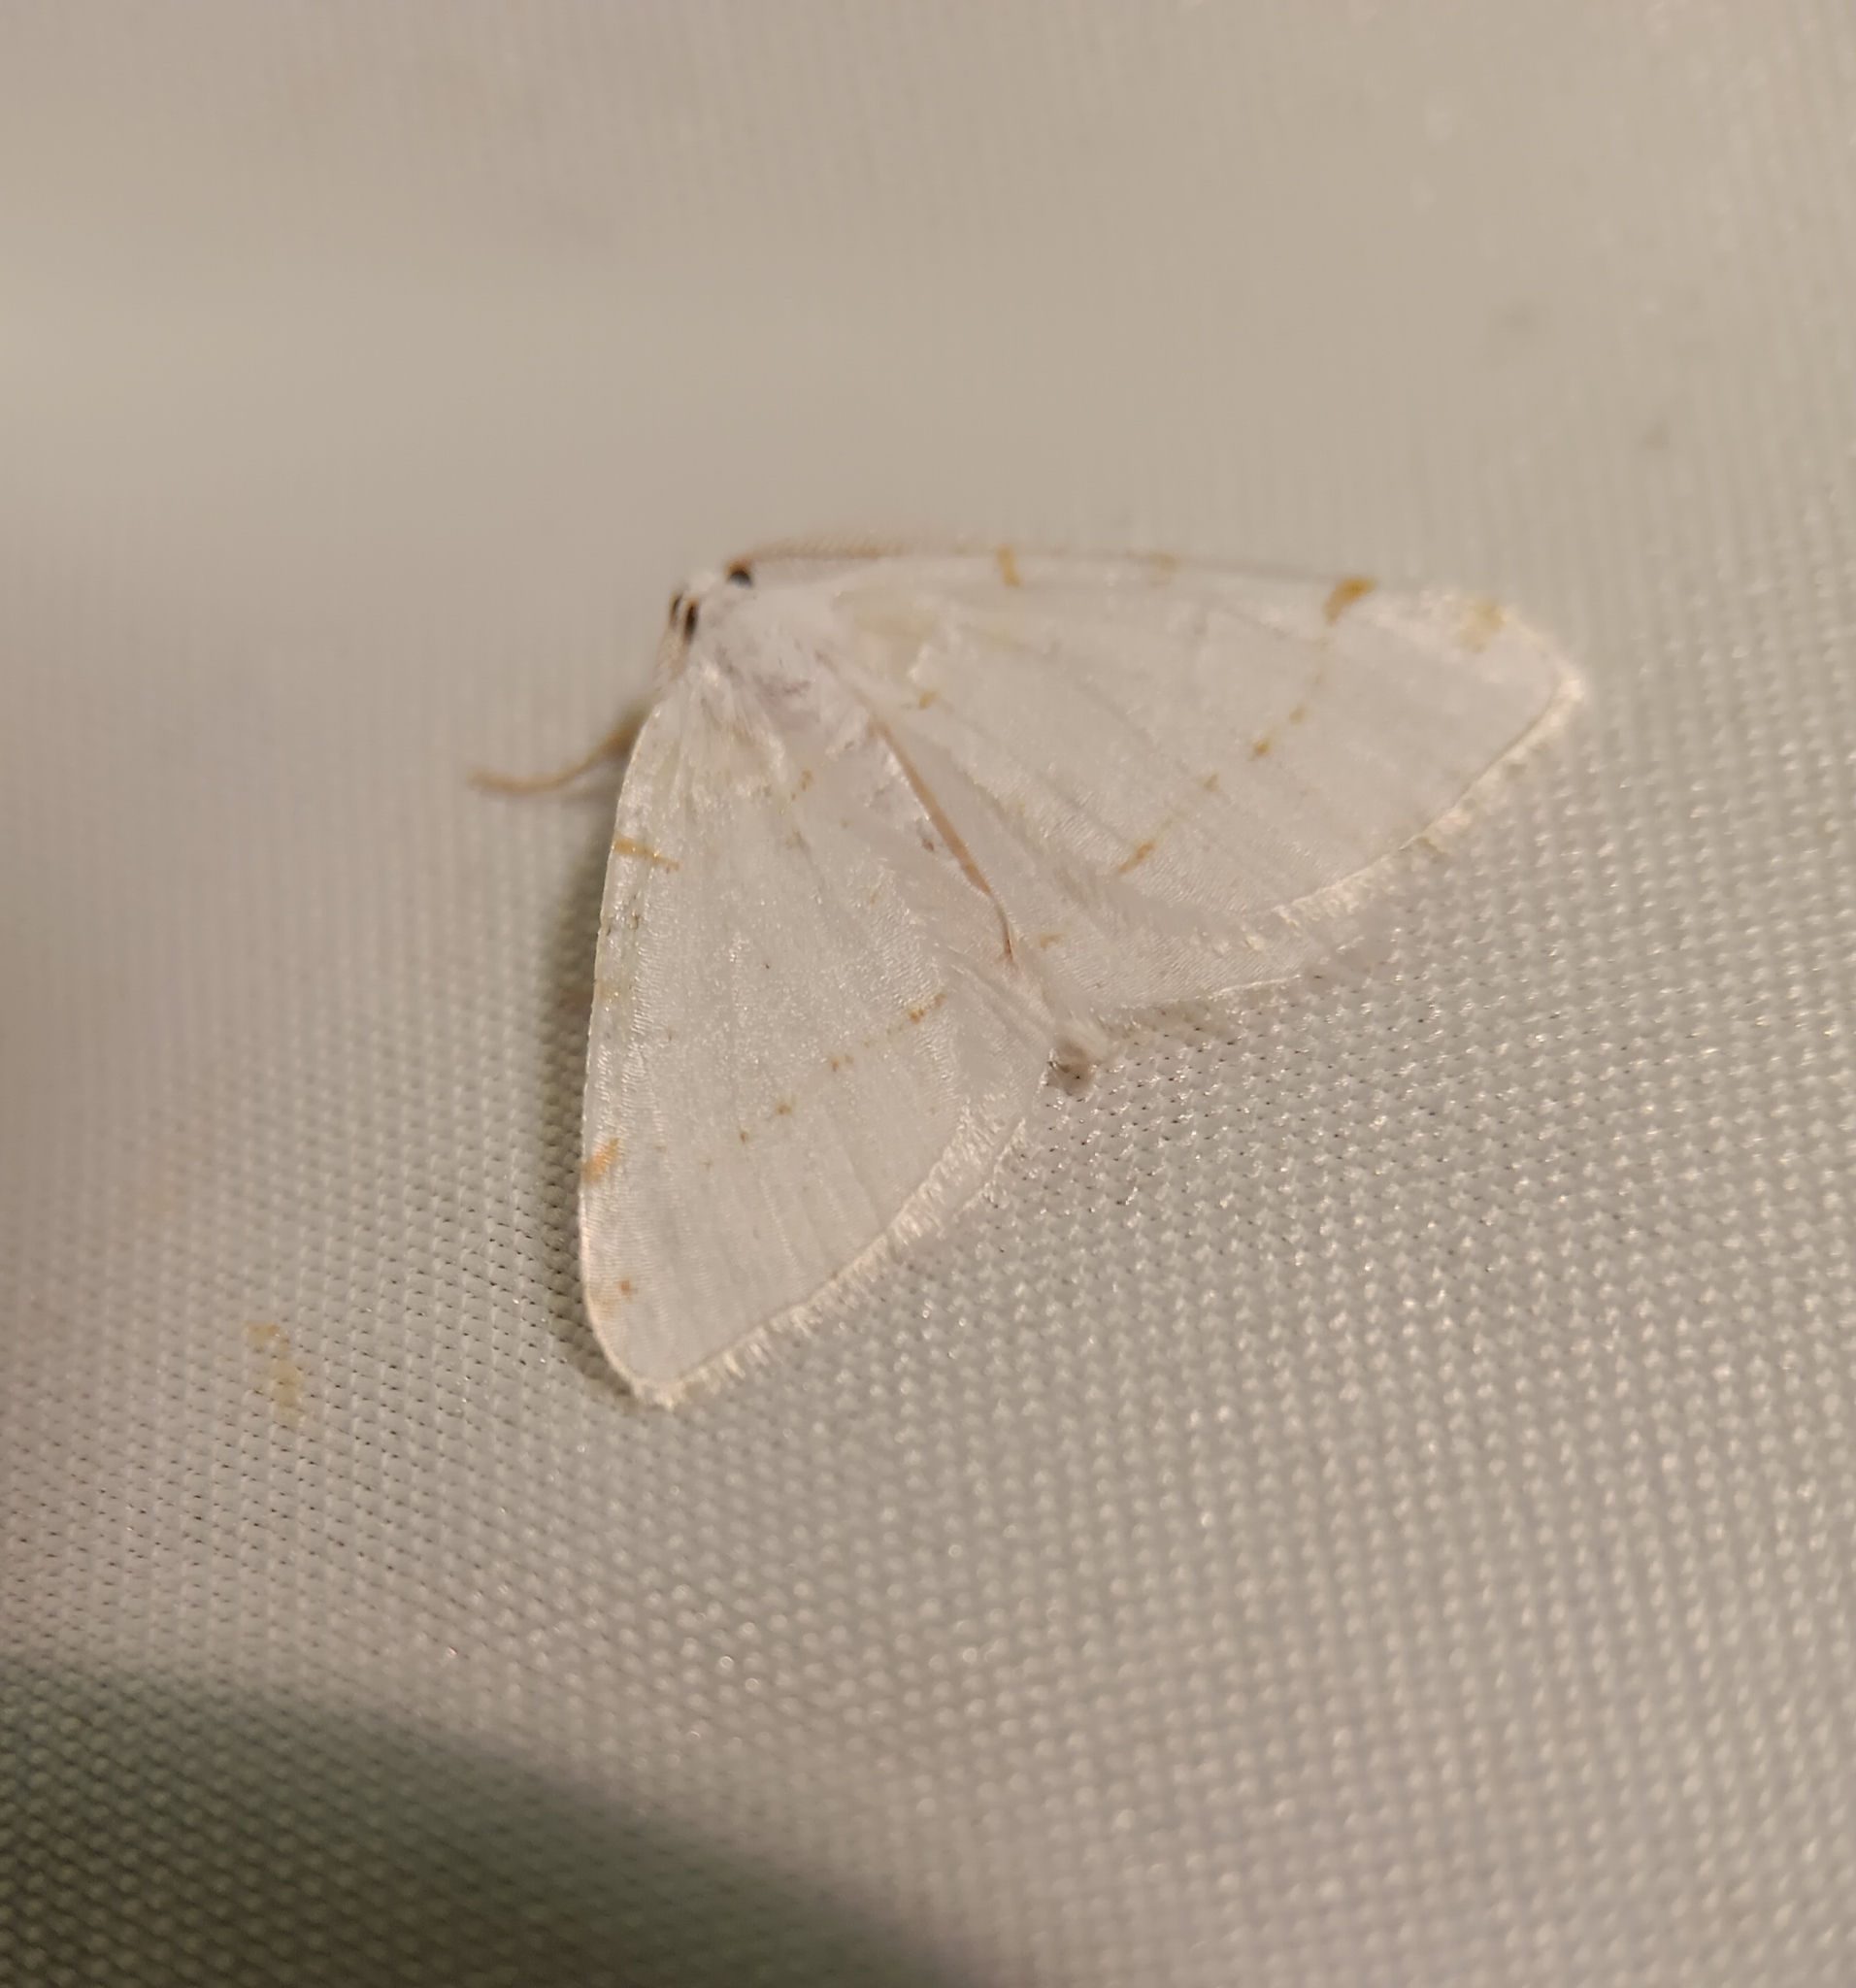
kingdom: Animalia
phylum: Arthropoda
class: Insecta
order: Lepidoptera
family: Geometridae
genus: Macaria
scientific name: Macaria pustularia
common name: Lesser maple spanworm moth
